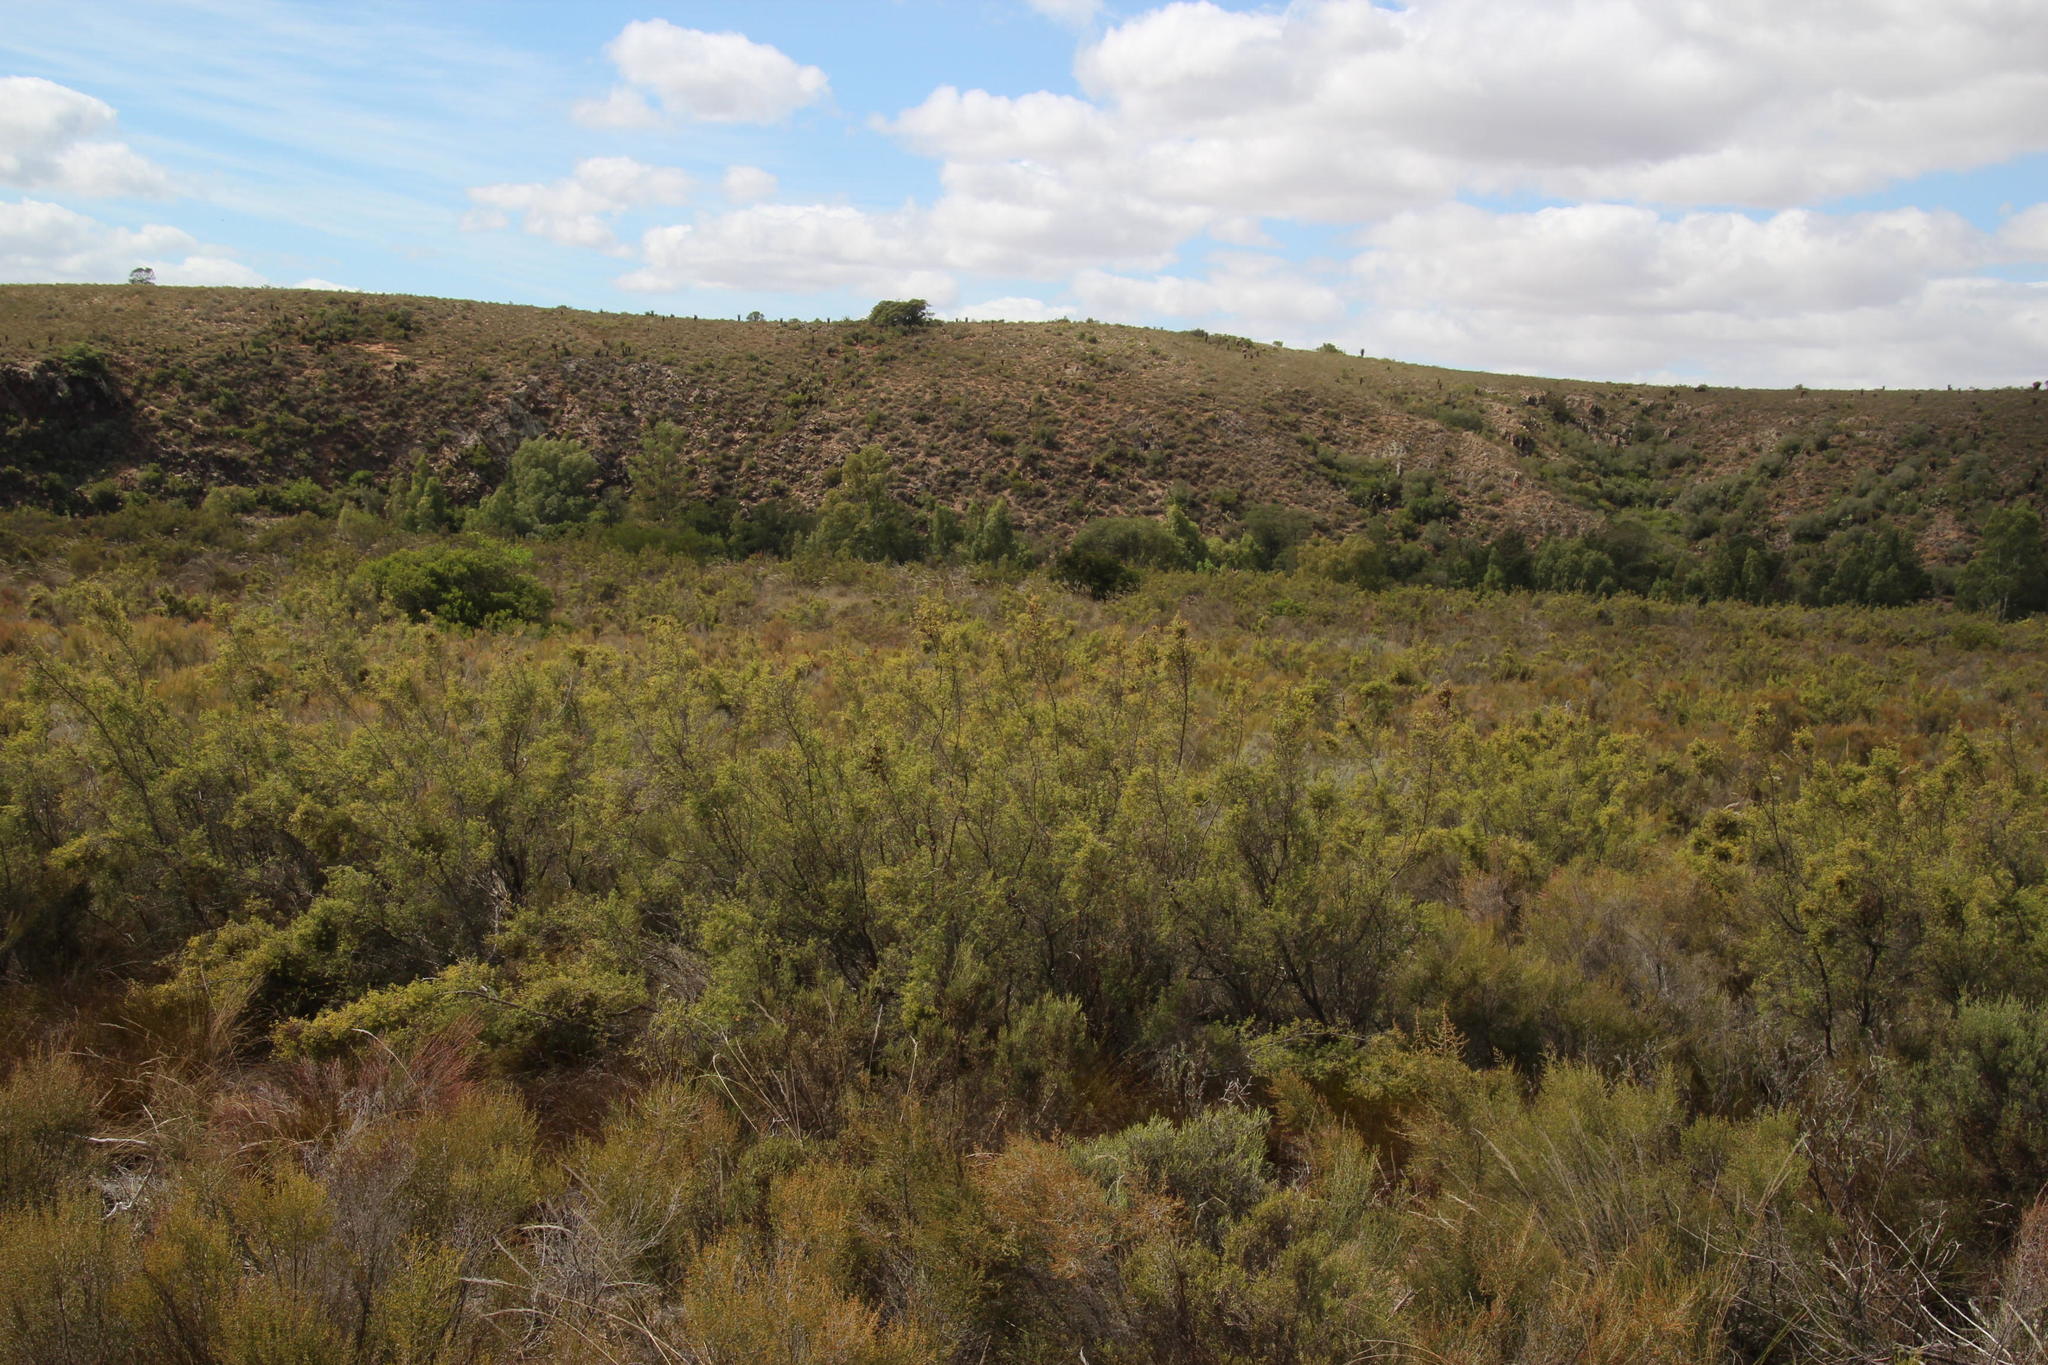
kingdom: Plantae
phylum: Tracheophyta
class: Magnoliopsida
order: Rosales
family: Rosaceae
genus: Cliffortia
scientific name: Cliffortia ruscifolia
